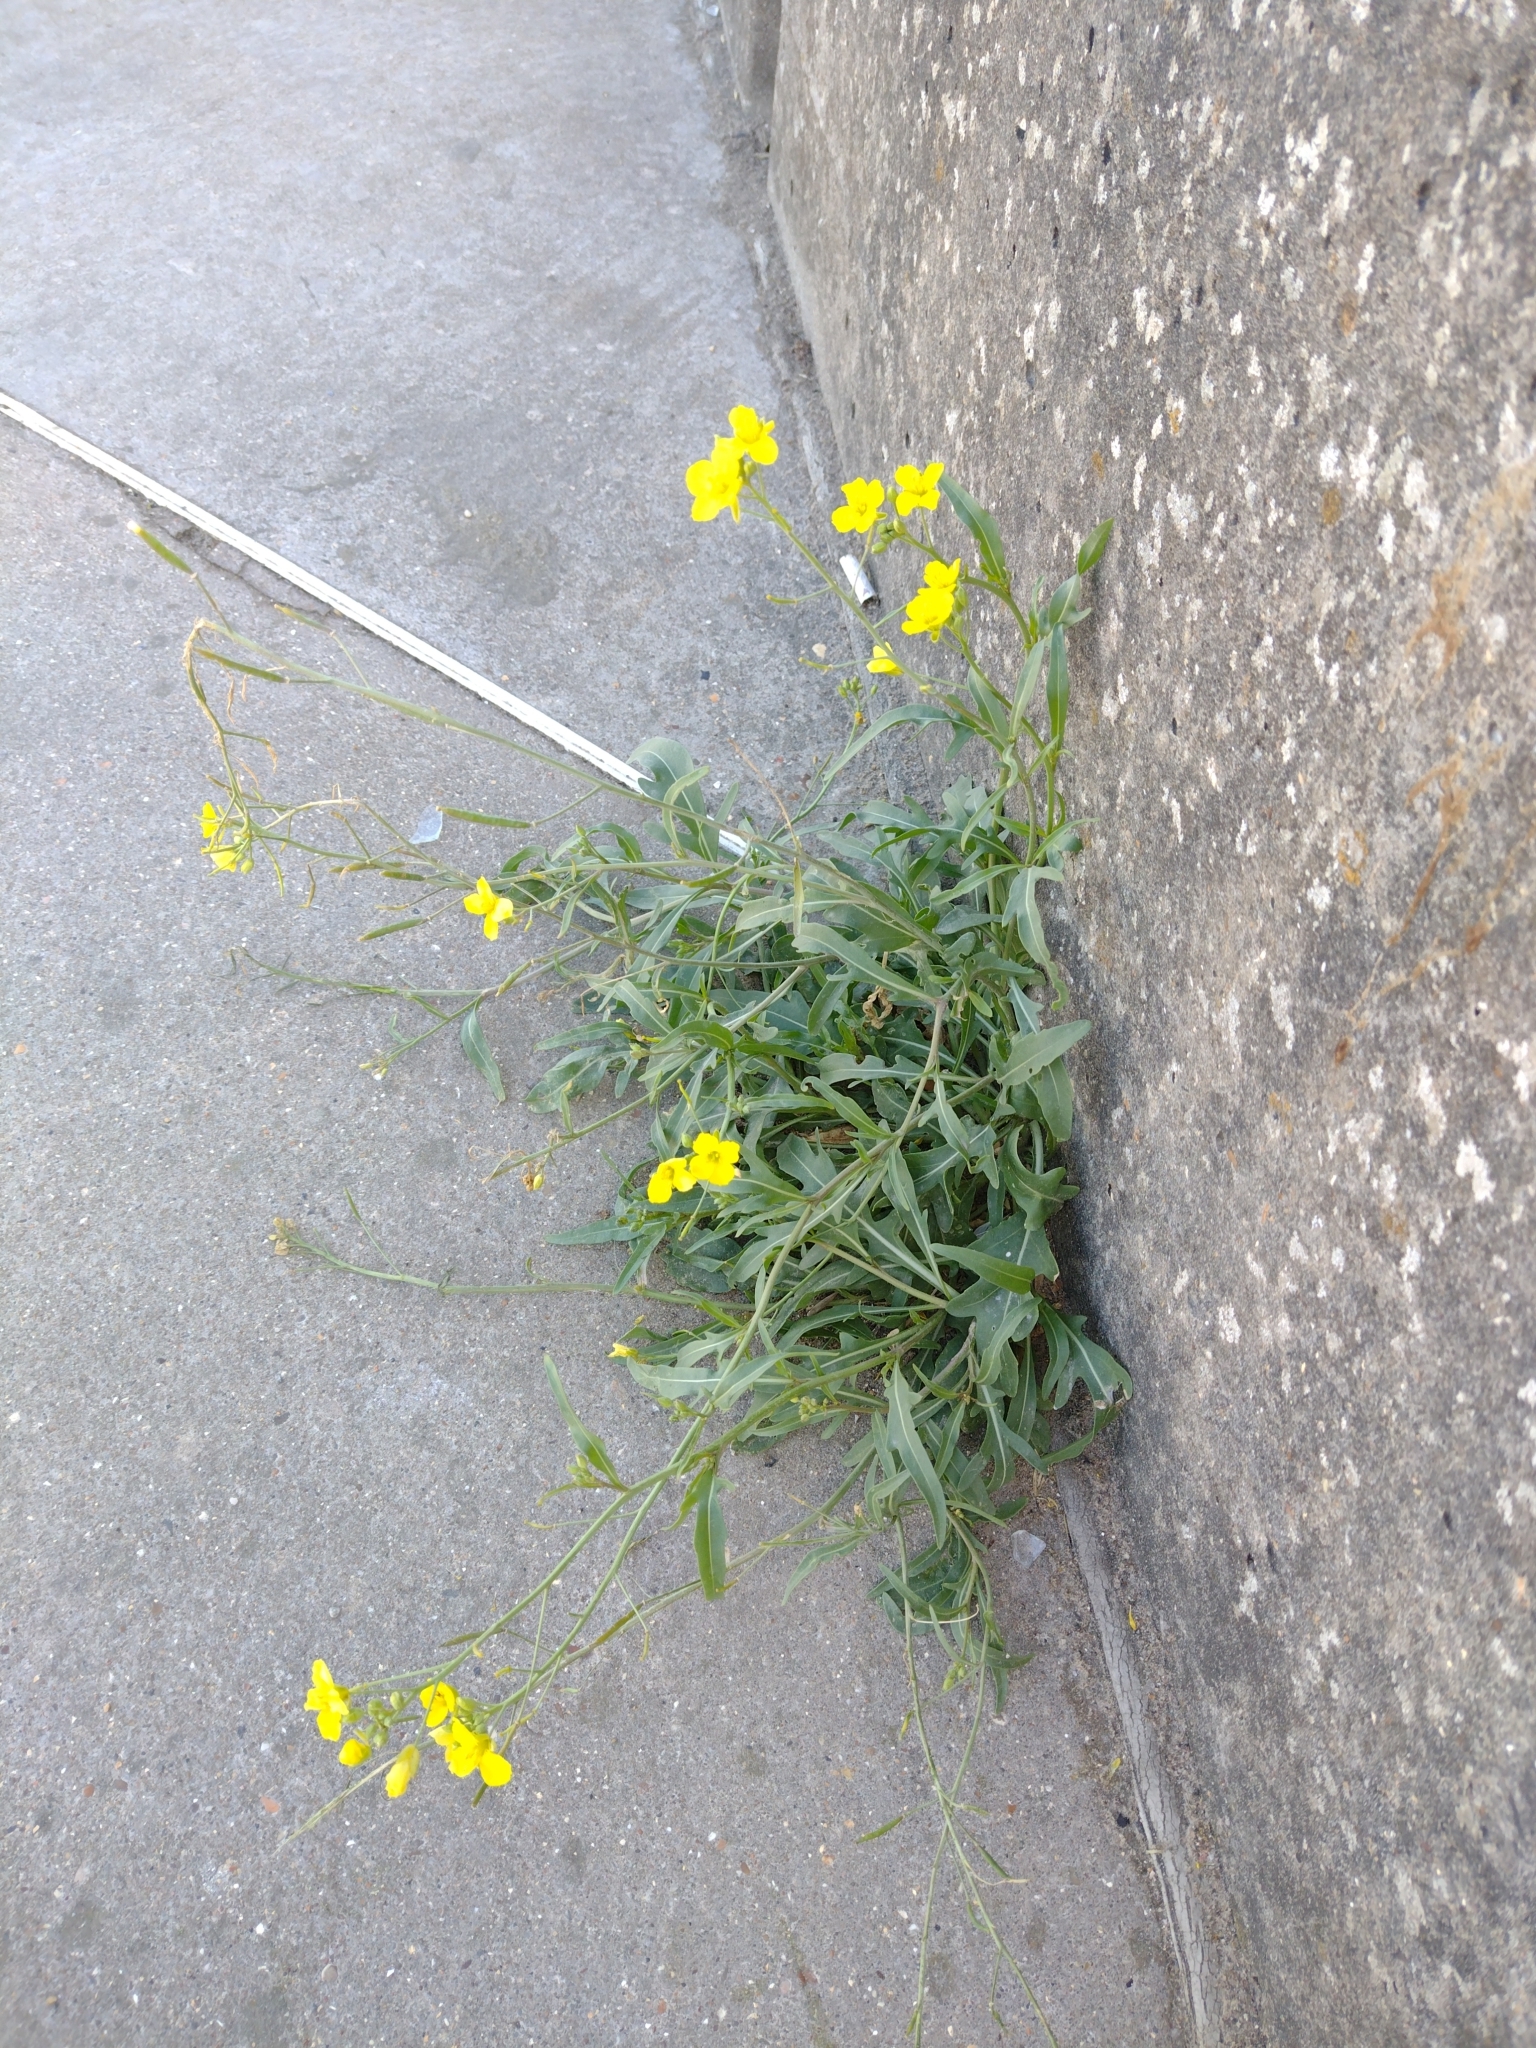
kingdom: Plantae
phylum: Tracheophyta
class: Magnoliopsida
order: Brassicales
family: Brassicaceae
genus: Diplotaxis
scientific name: Diplotaxis muralis
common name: Annual wall-rocket
